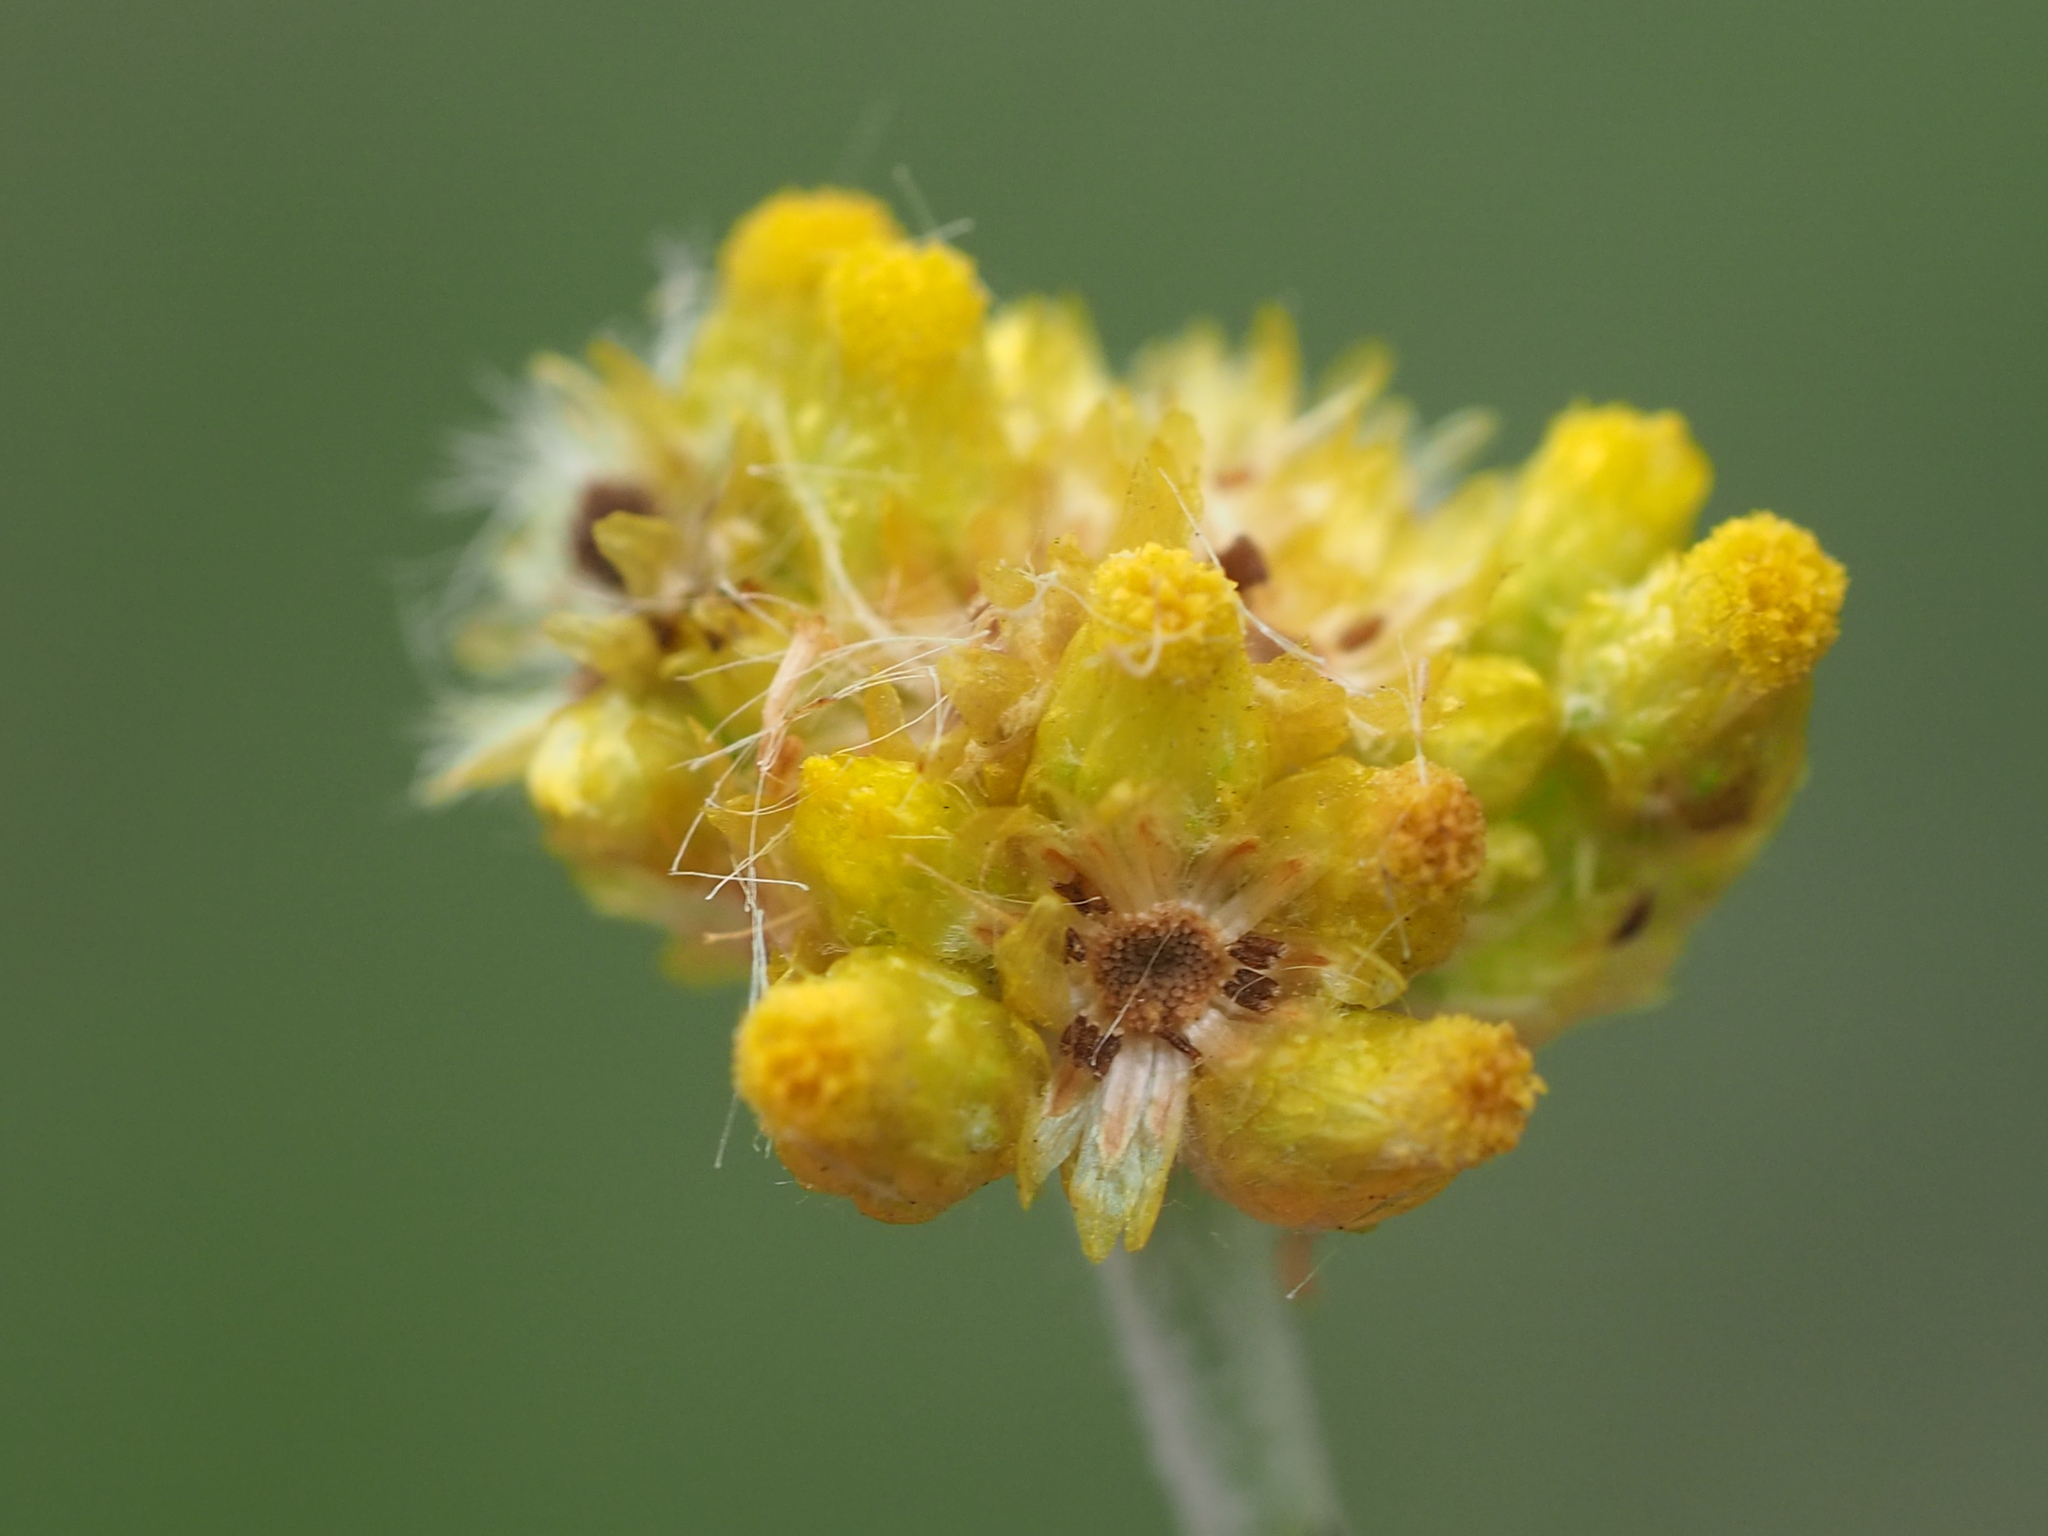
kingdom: Plantae
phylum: Tracheophyta
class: Magnoliopsida
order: Asterales
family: Asteraceae
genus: Pseudognaphalium
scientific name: Pseudognaphalium affine
